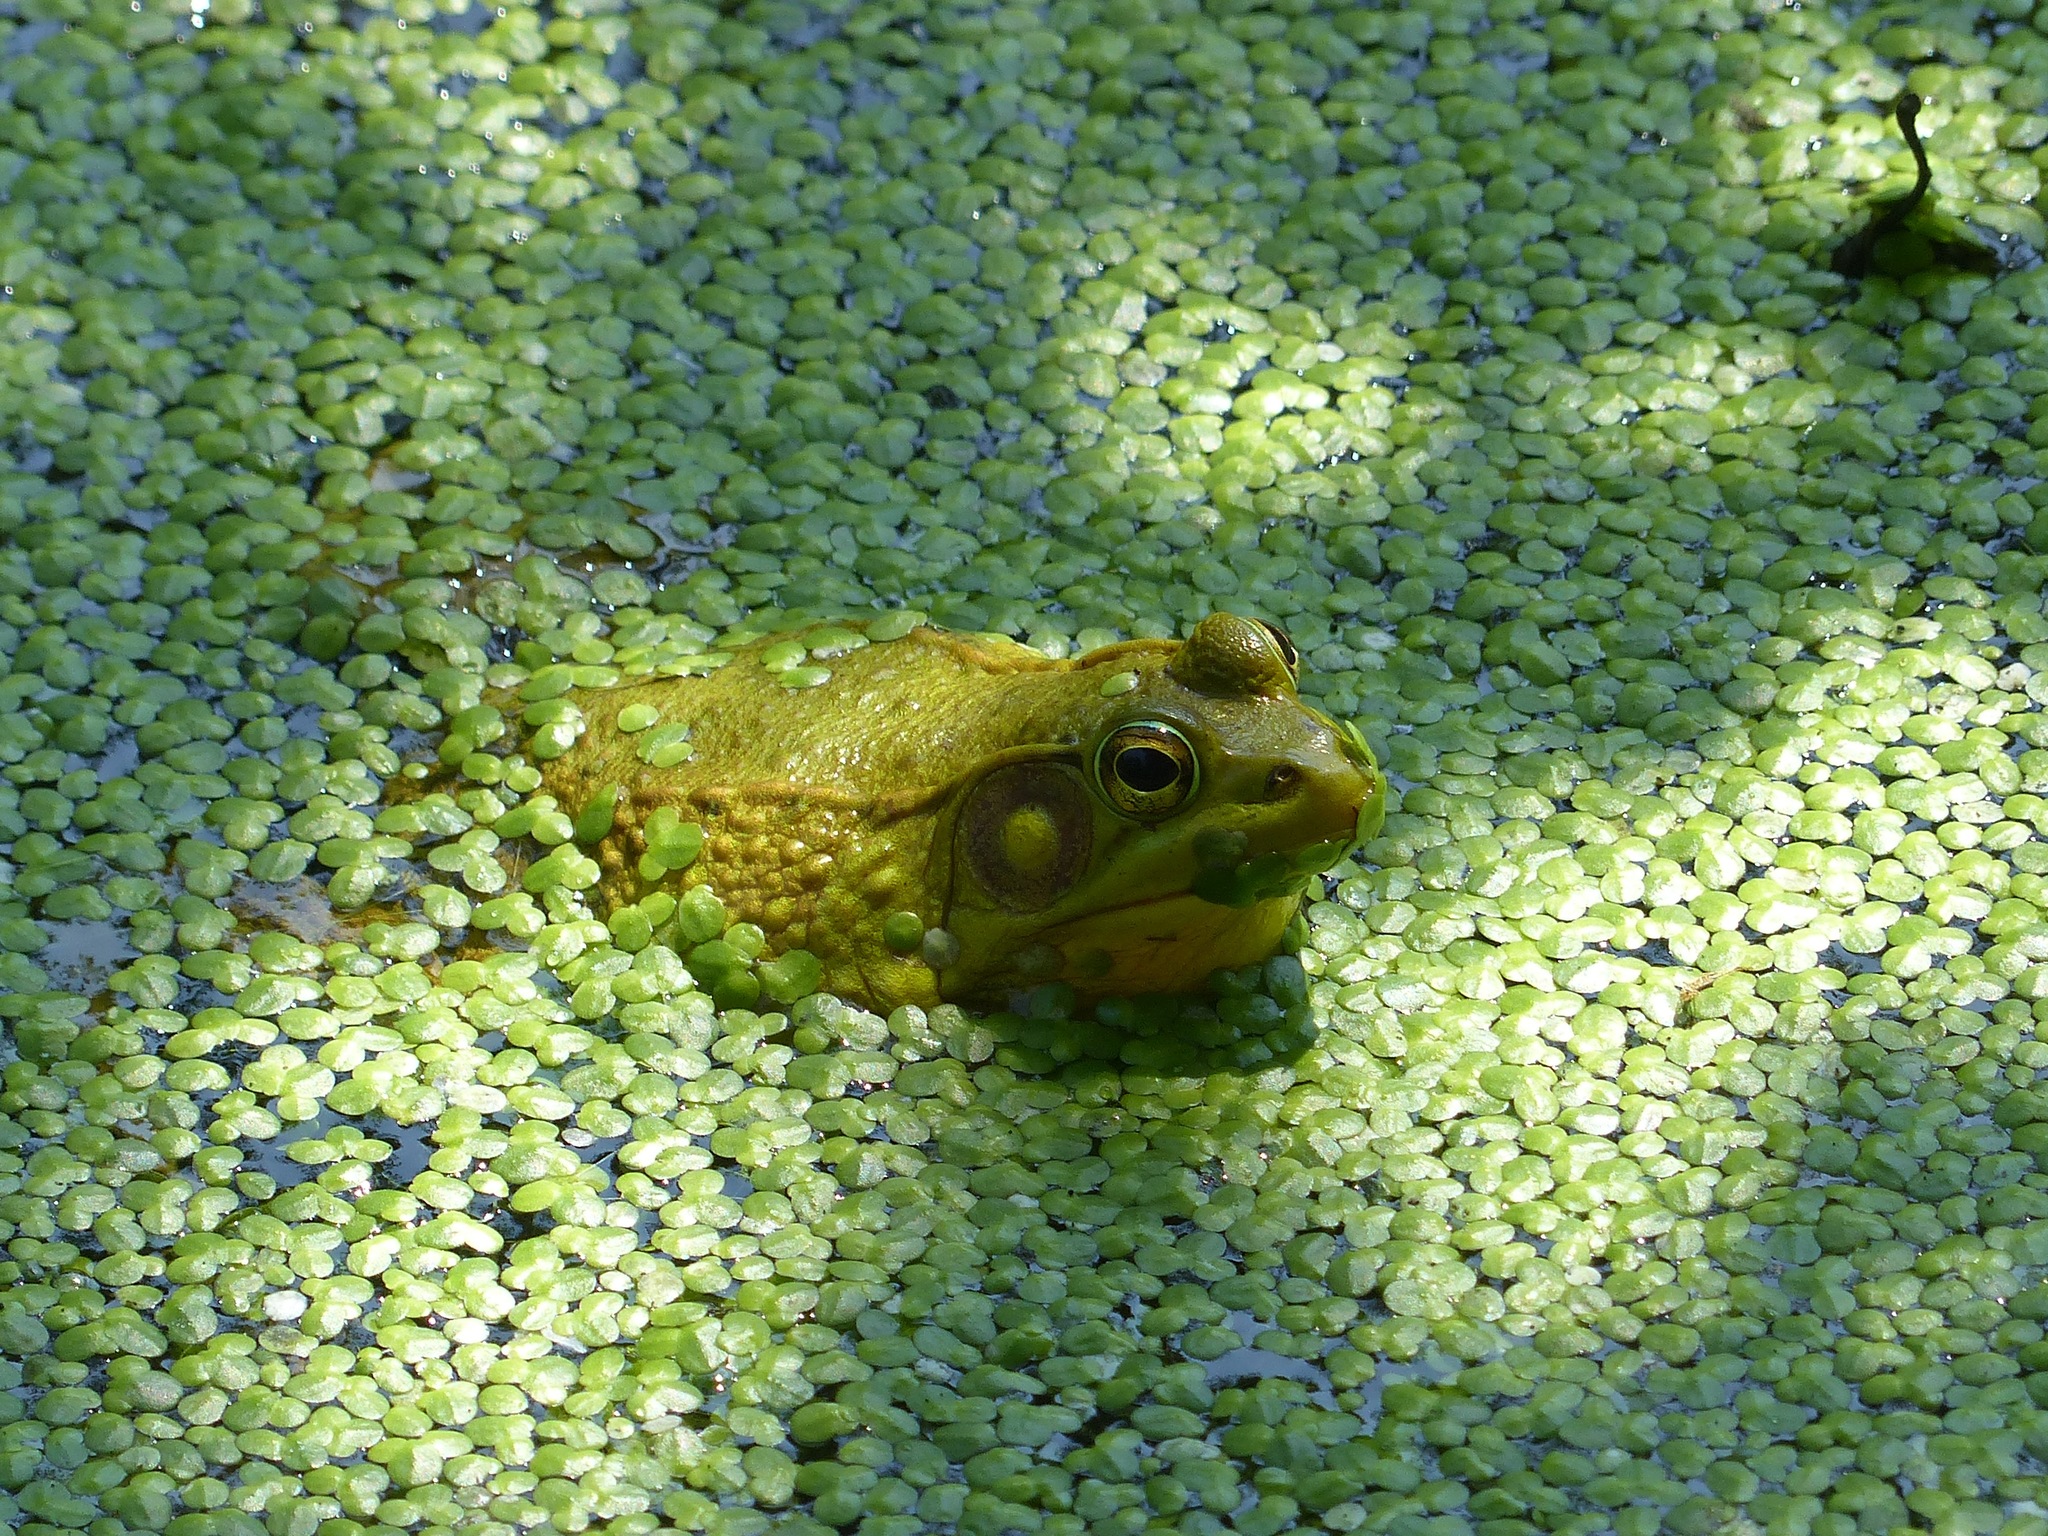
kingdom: Animalia
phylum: Chordata
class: Amphibia
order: Anura
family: Ranidae
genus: Lithobates
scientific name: Lithobates clamitans
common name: Green frog
